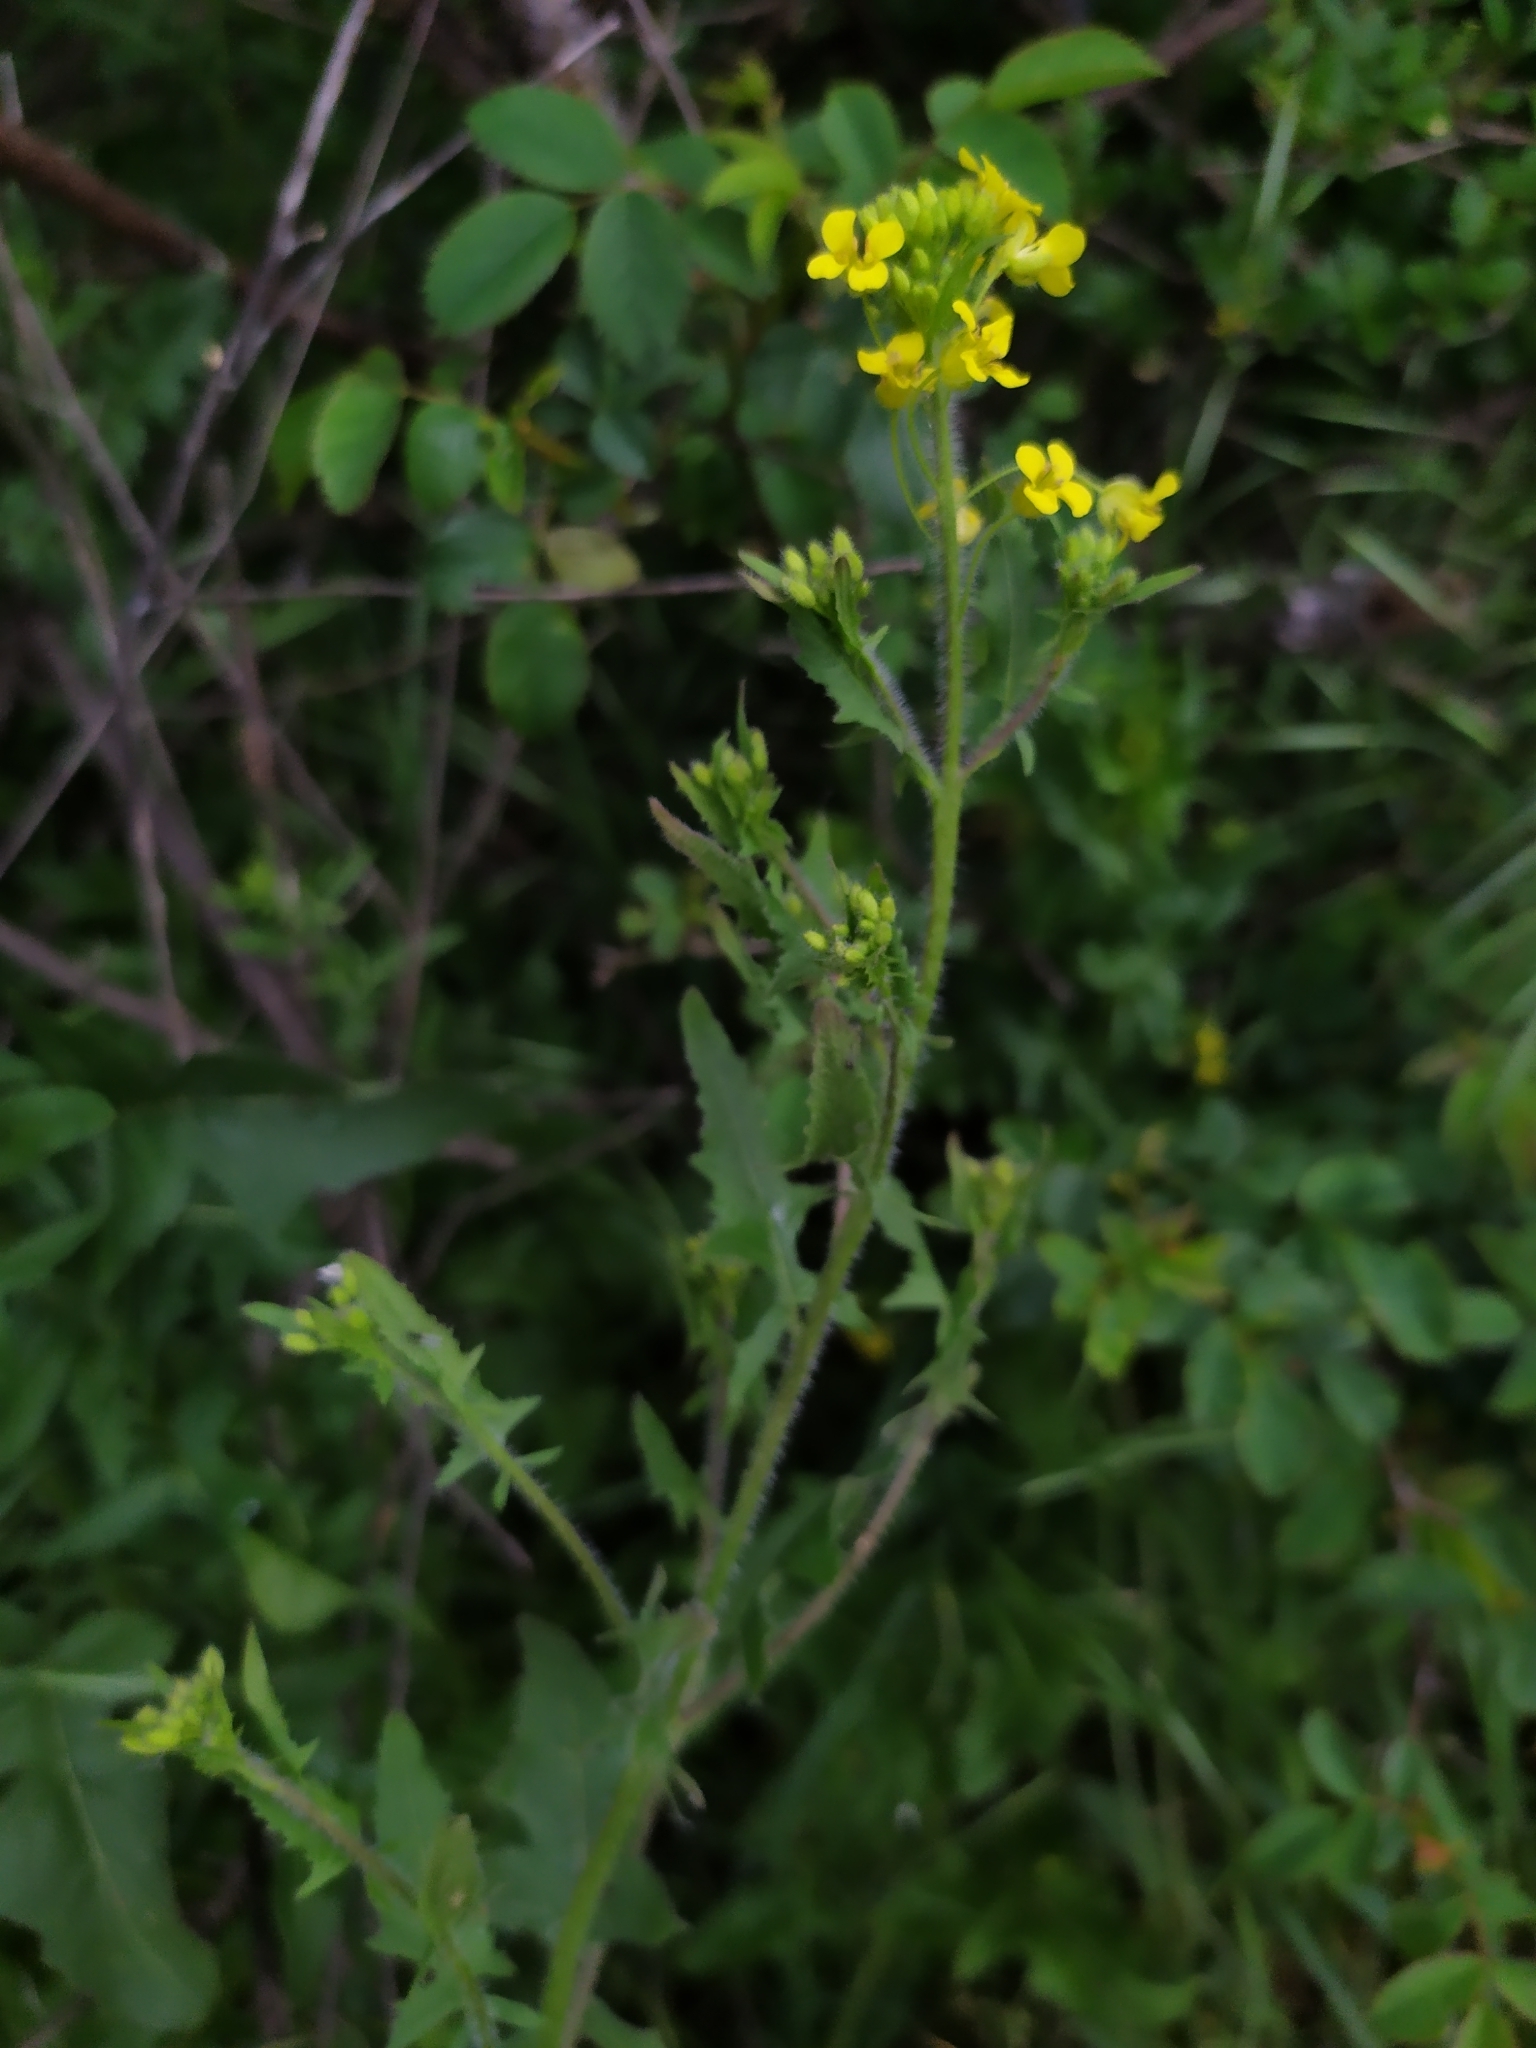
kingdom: Plantae
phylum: Tracheophyta
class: Magnoliopsida
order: Brassicales
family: Brassicaceae
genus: Sisymbrium
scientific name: Sisymbrium loeselii
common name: False london-rocket
